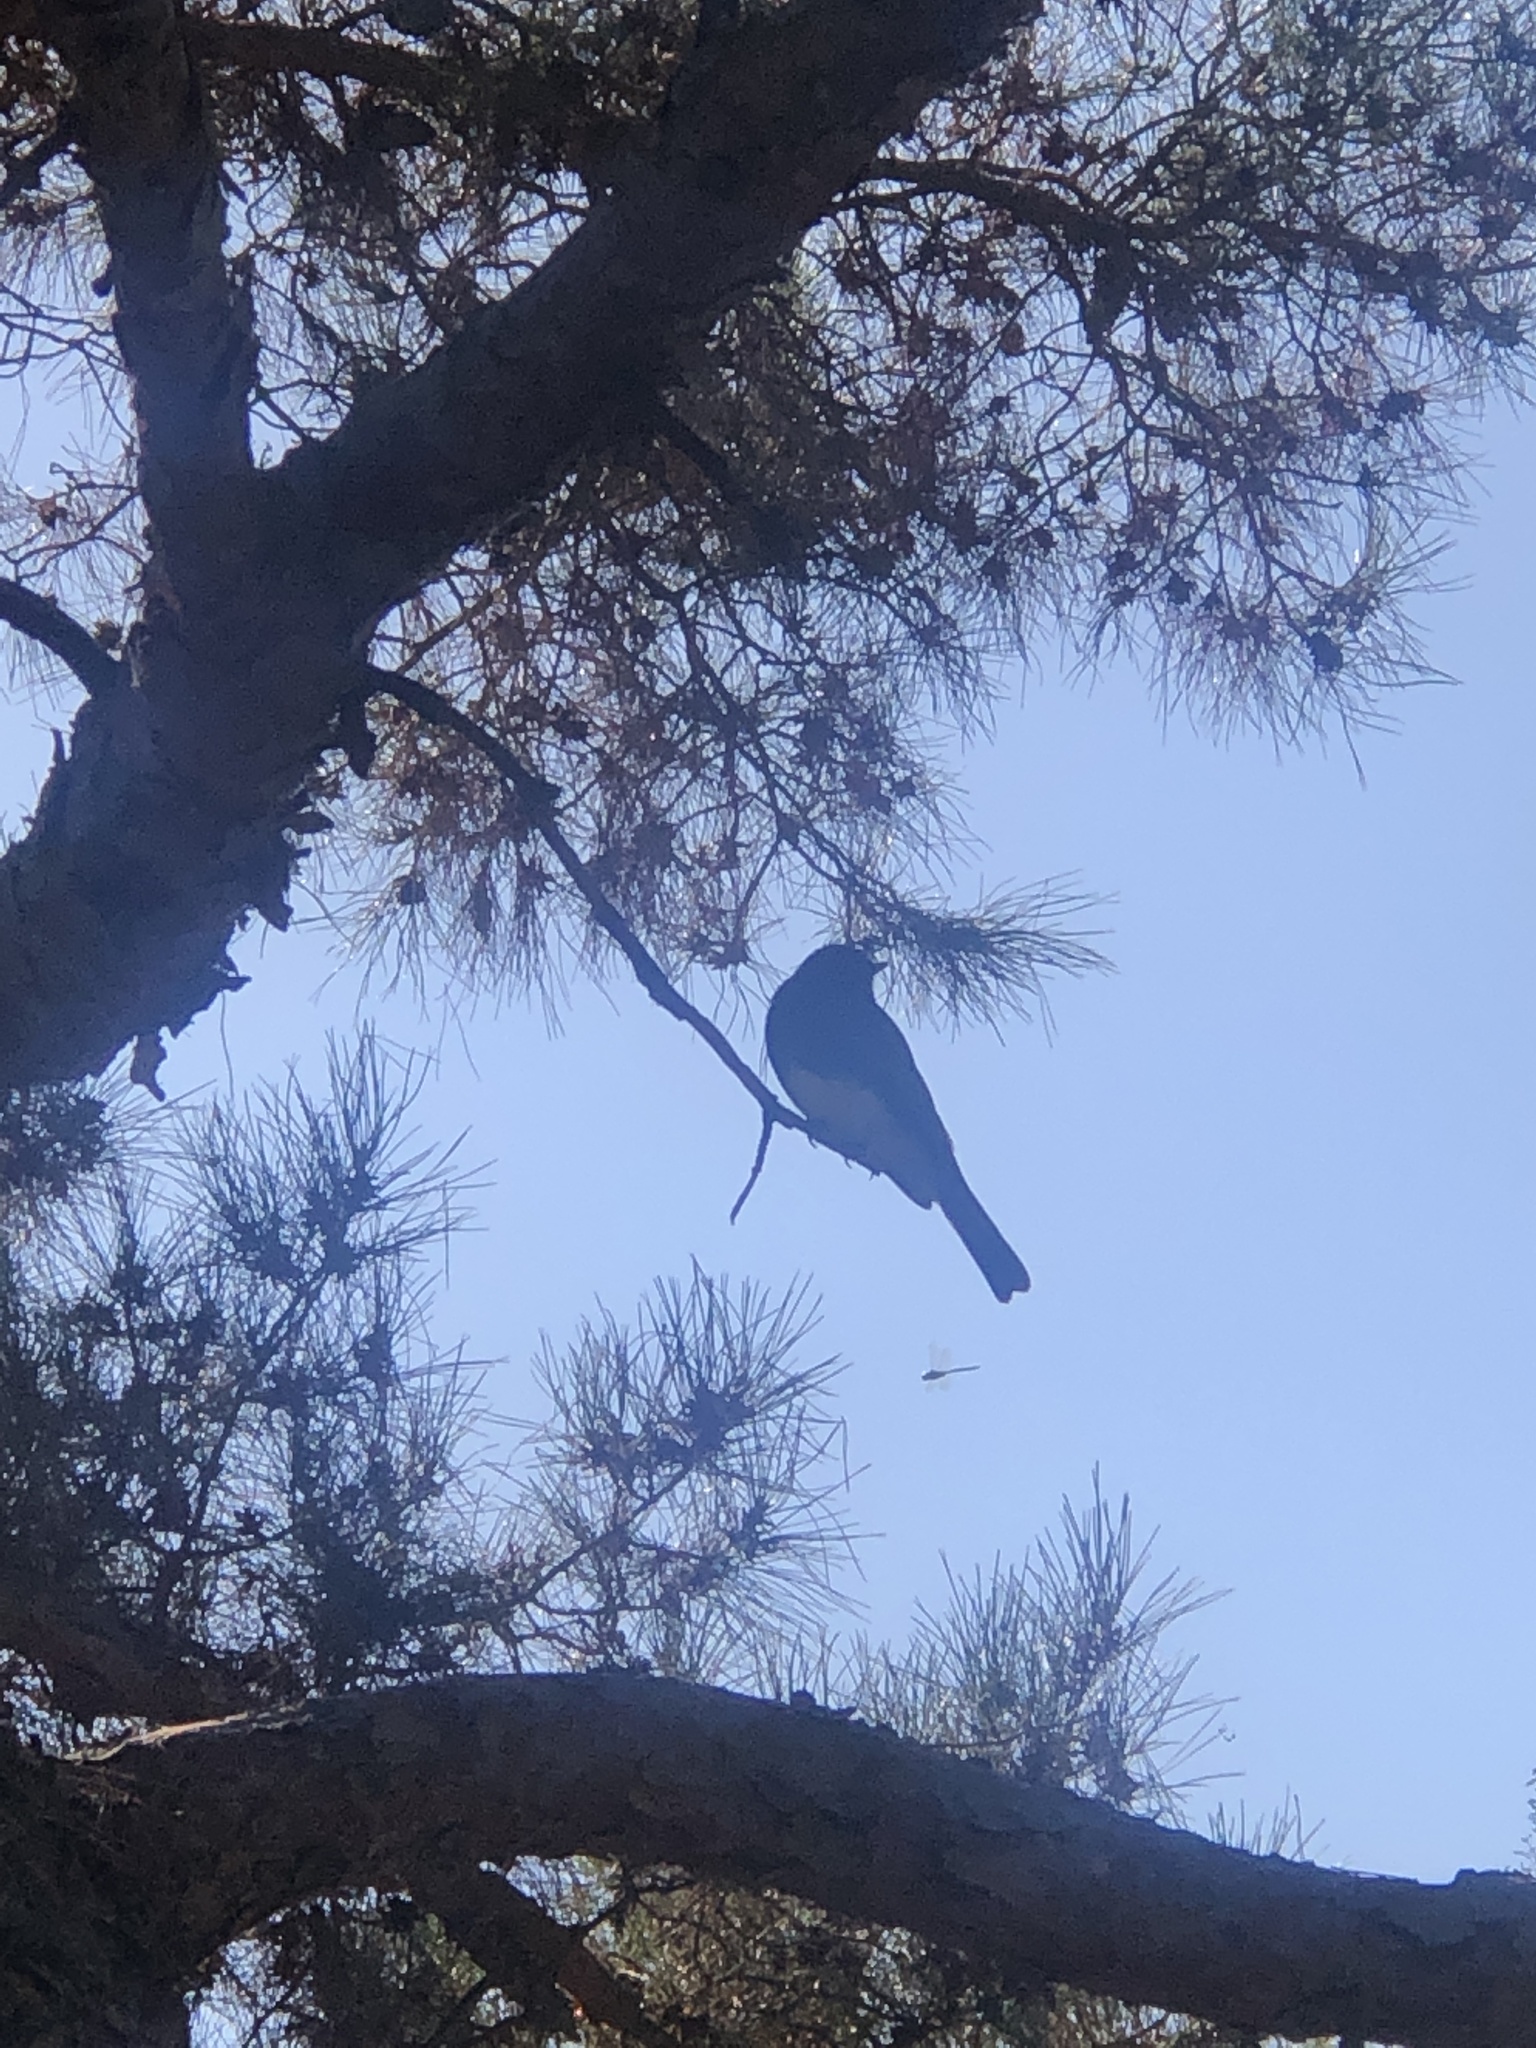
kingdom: Animalia
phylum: Chordata
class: Aves
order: Passeriformes
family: Tyrannidae
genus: Sayornis
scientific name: Sayornis nigricans
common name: Black phoebe
